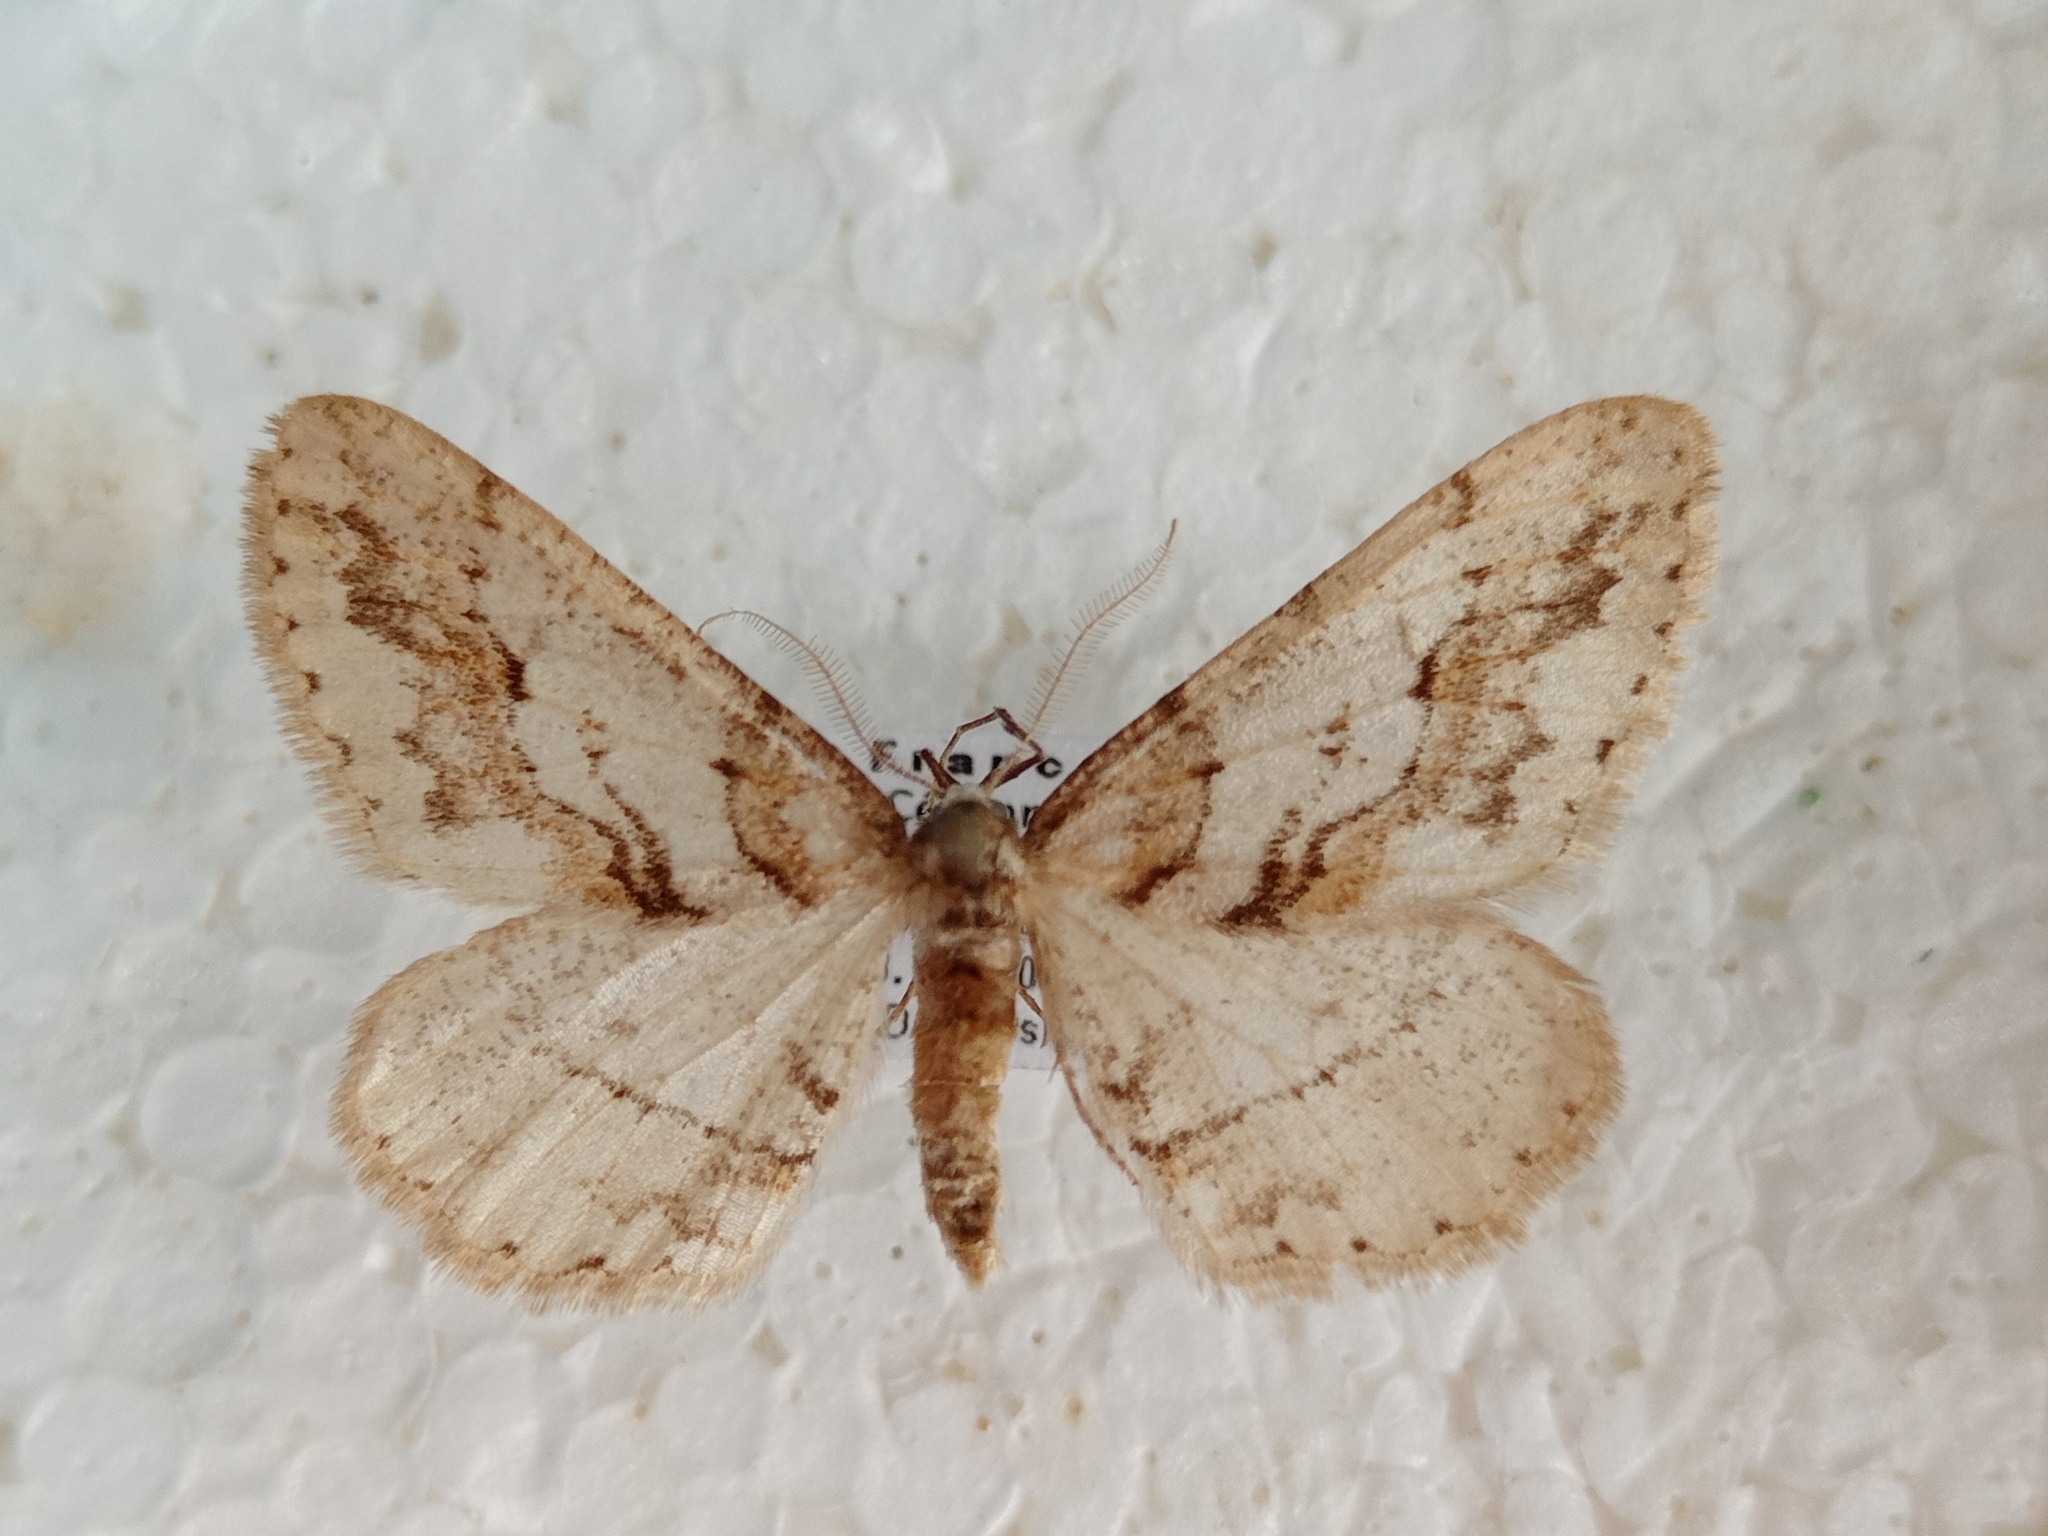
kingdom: Animalia
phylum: Arthropoda
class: Insecta
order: Lepidoptera
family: Geometridae
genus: Agriopis
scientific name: Agriopis bajaria
